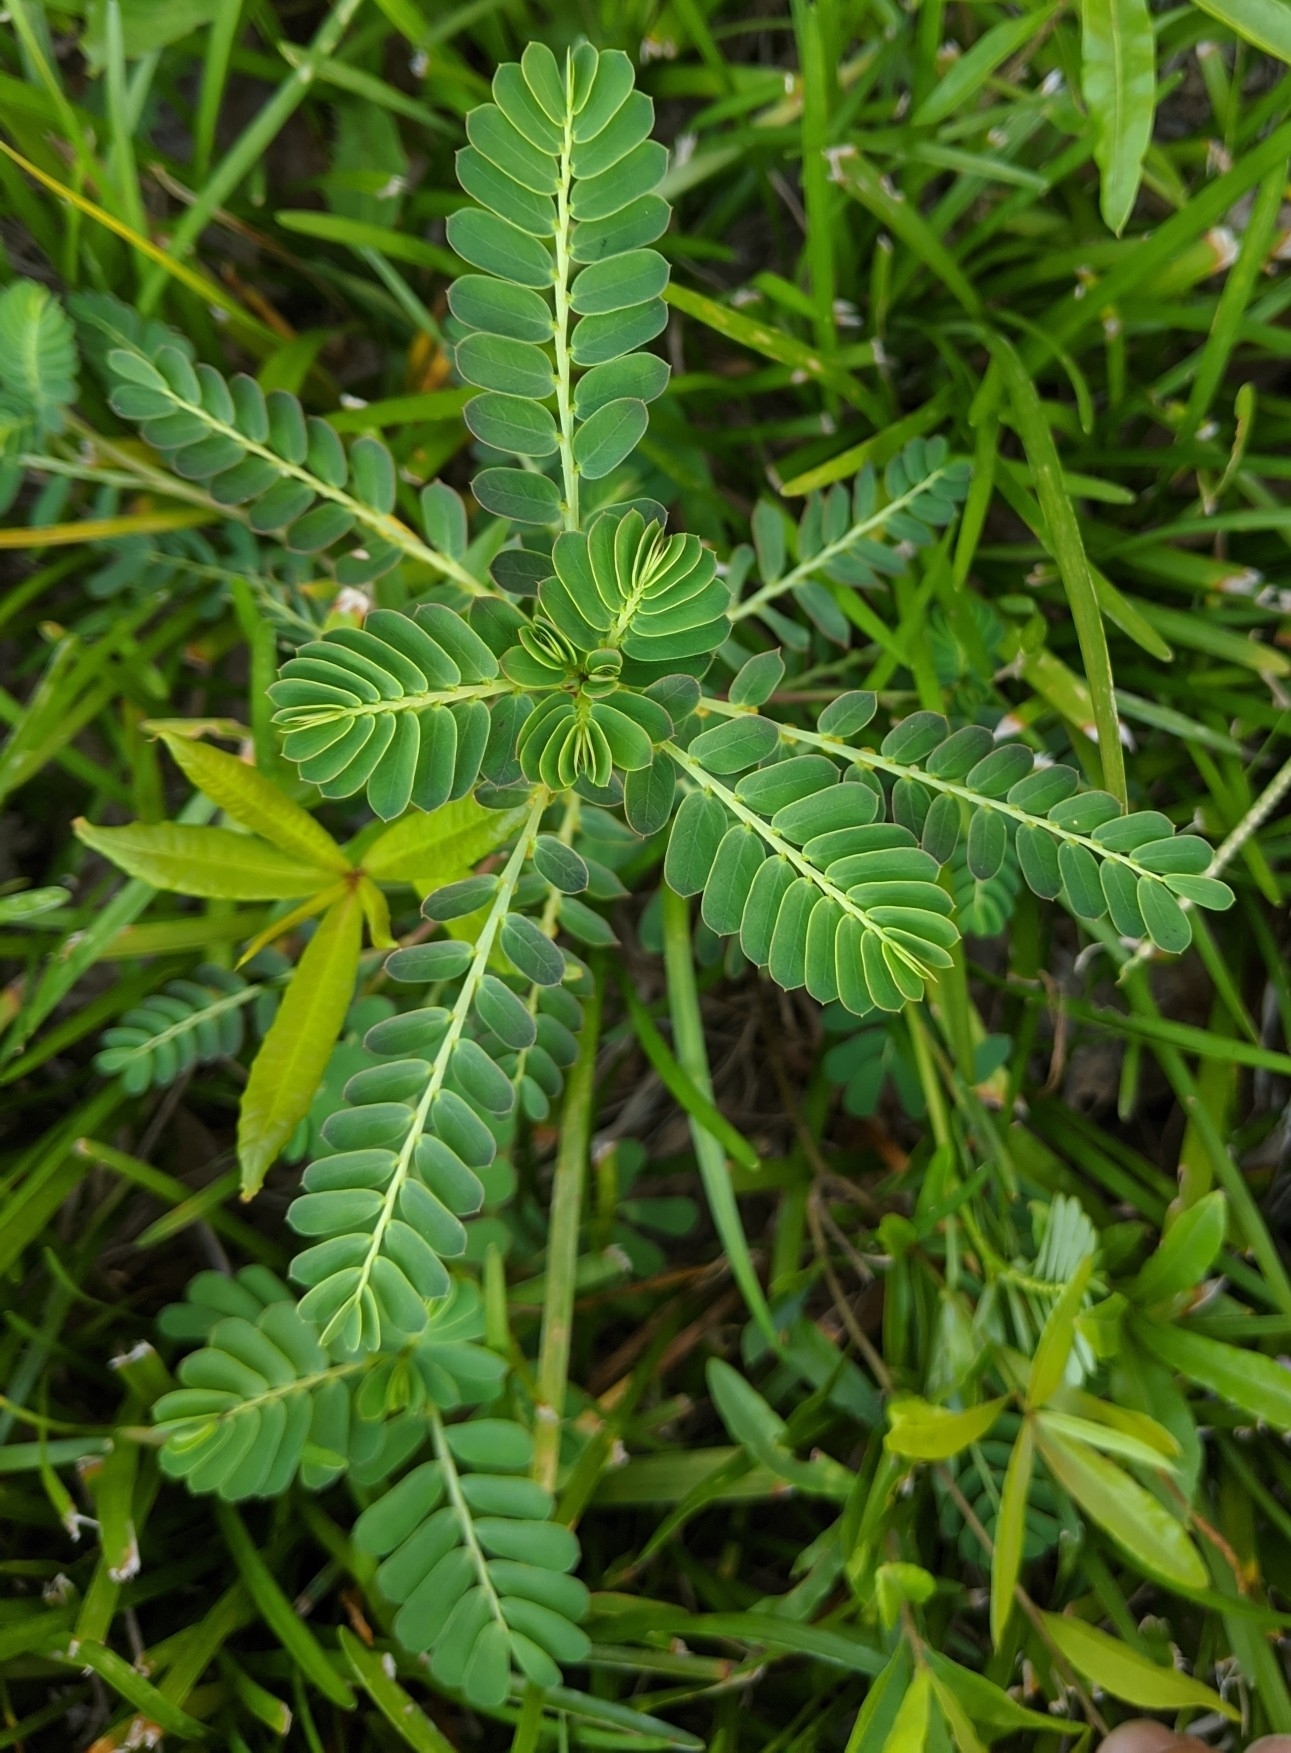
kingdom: Plantae
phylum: Tracheophyta
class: Magnoliopsida
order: Malpighiales
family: Phyllanthaceae
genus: Phyllanthus
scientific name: Phyllanthus urinaria
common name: Chamber bitter
